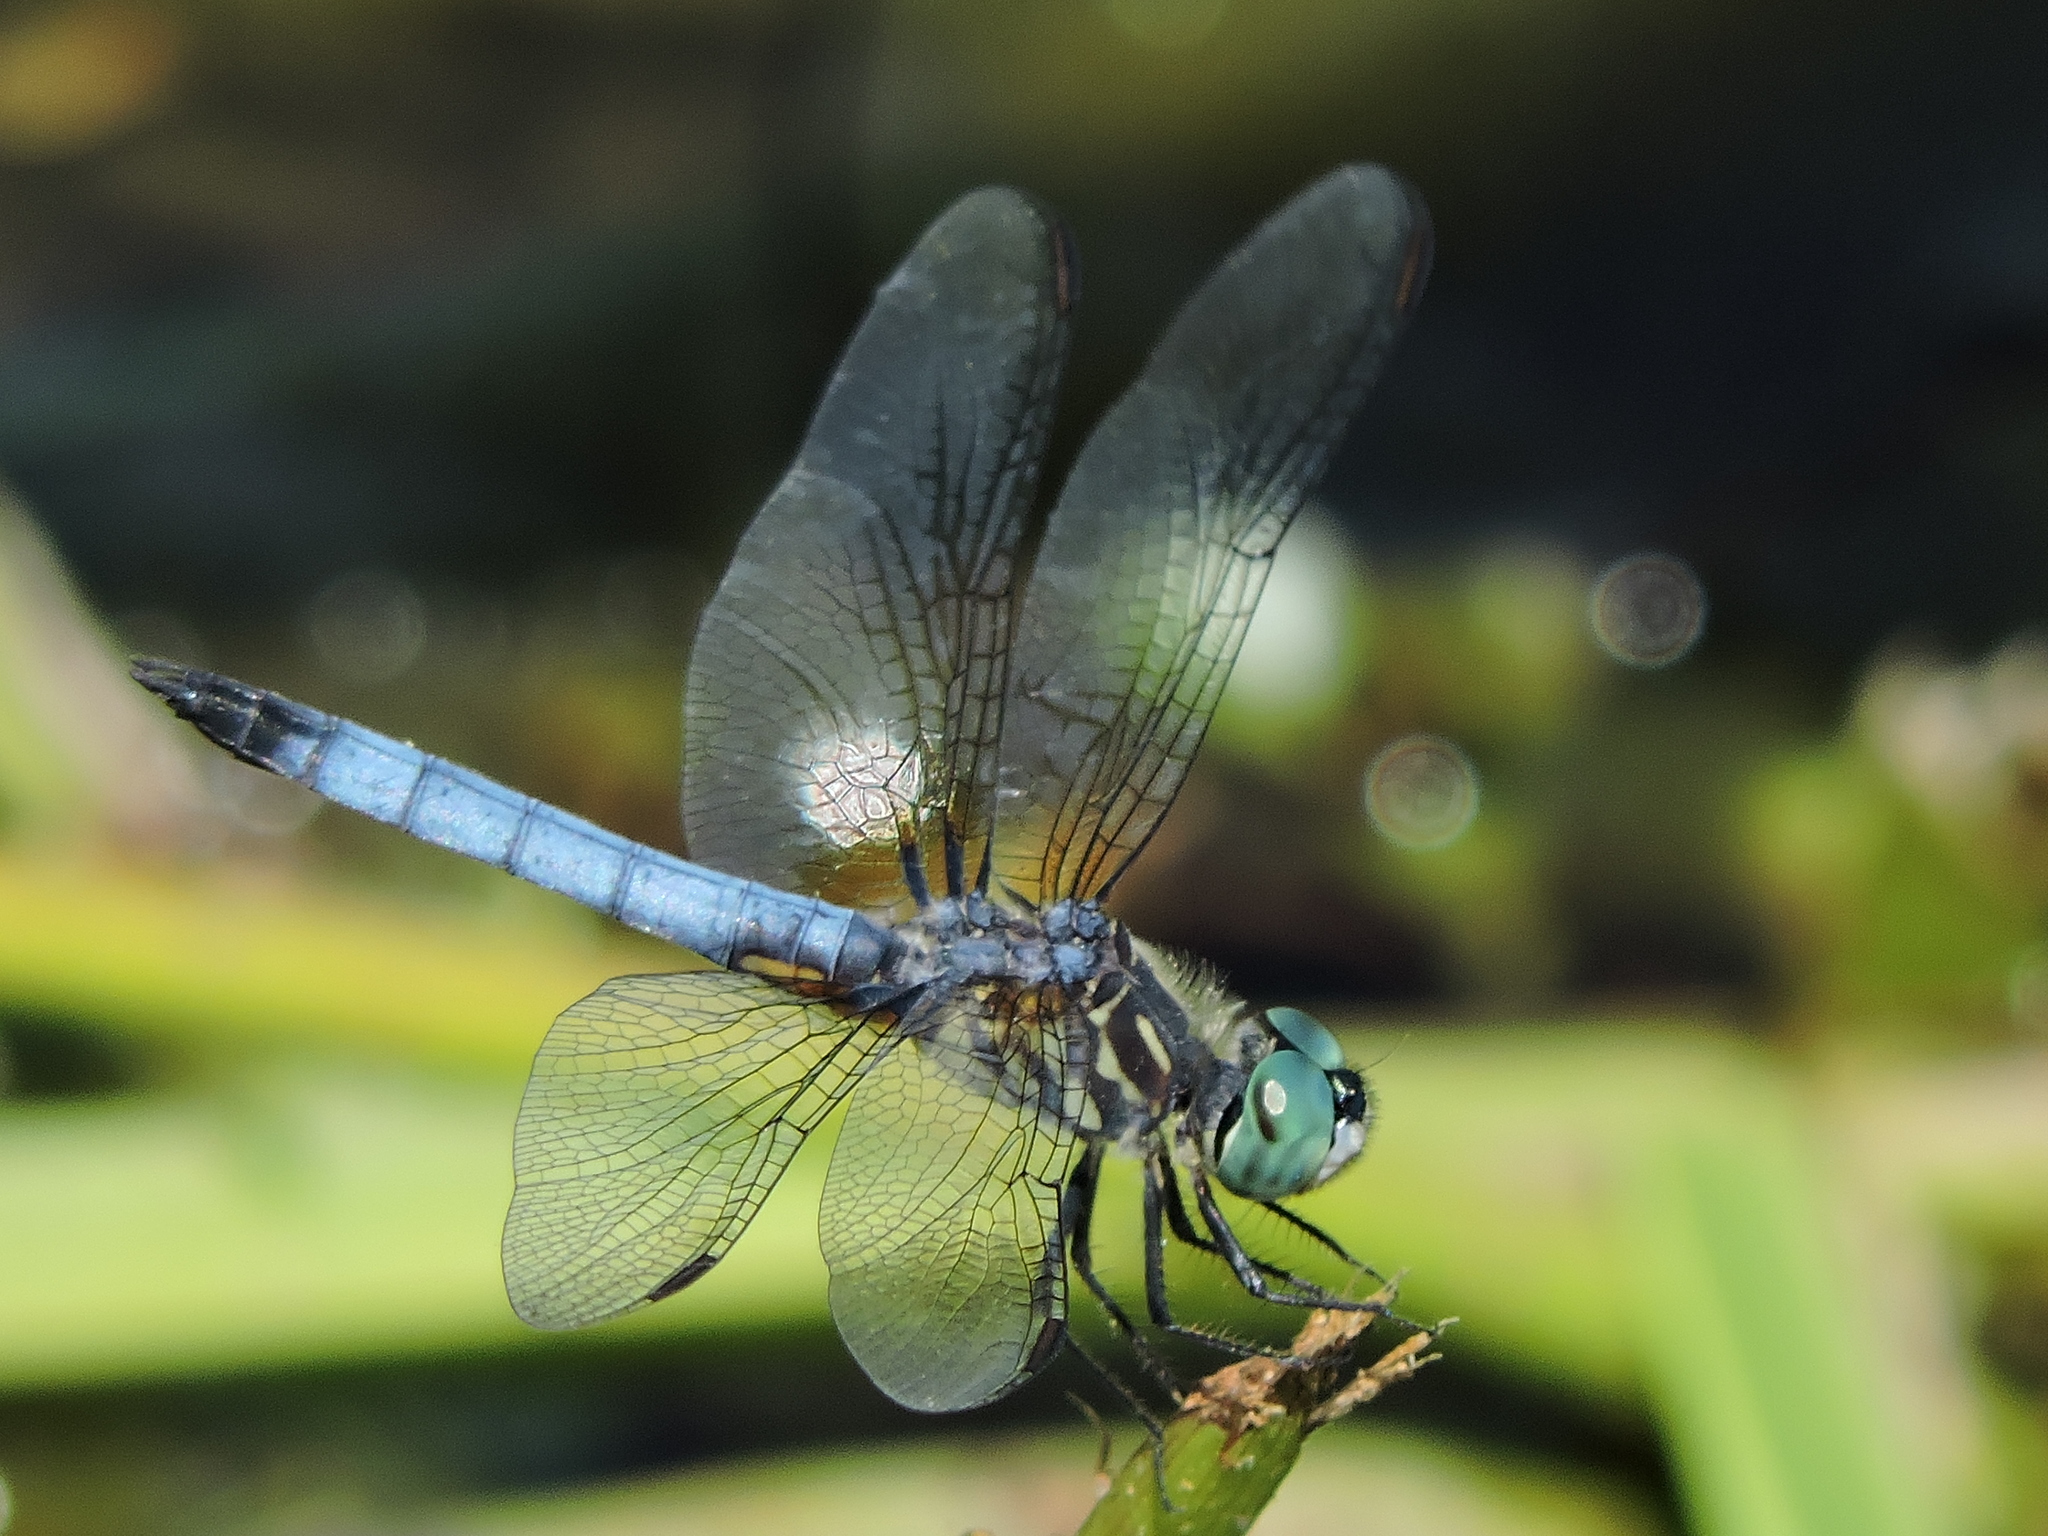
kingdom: Animalia
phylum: Arthropoda
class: Insecta
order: Odonata
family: Libellulidae
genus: Pachydiplax
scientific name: Pachydiplax longipennis
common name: Blue dasher
